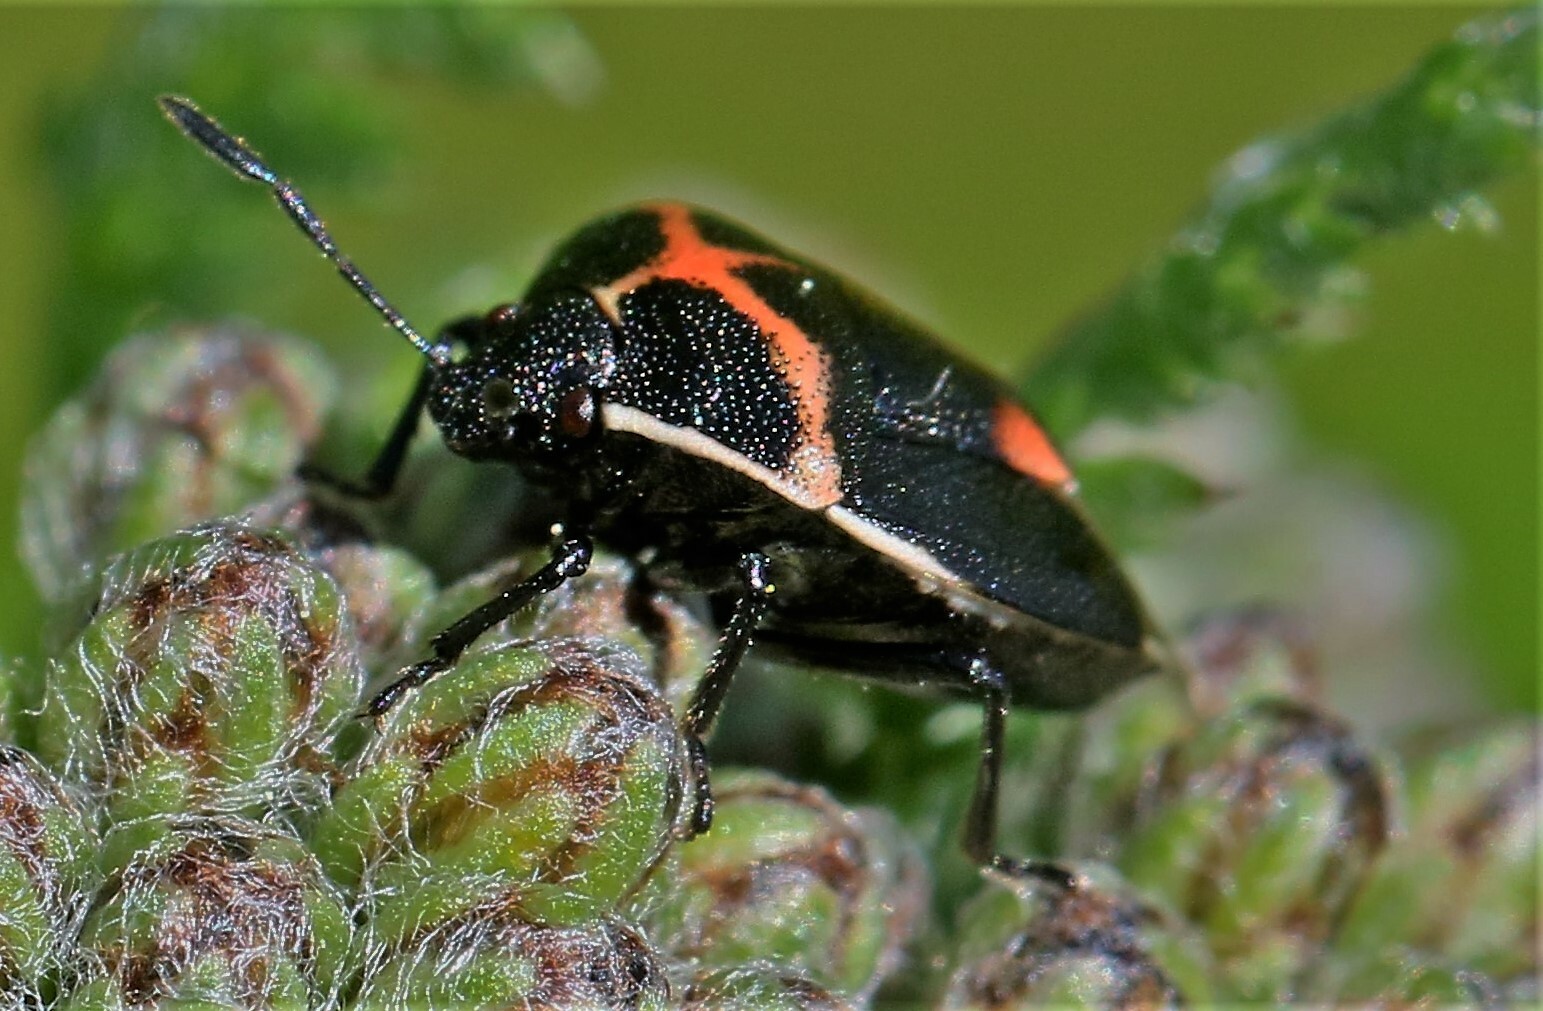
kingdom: Animalia
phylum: Arthropoda
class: Insecta
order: Hemiptera
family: Pentatomidae
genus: Cosmopepla
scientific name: Cosmopepla lintneriana
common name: Twice-stabbed stink bug
